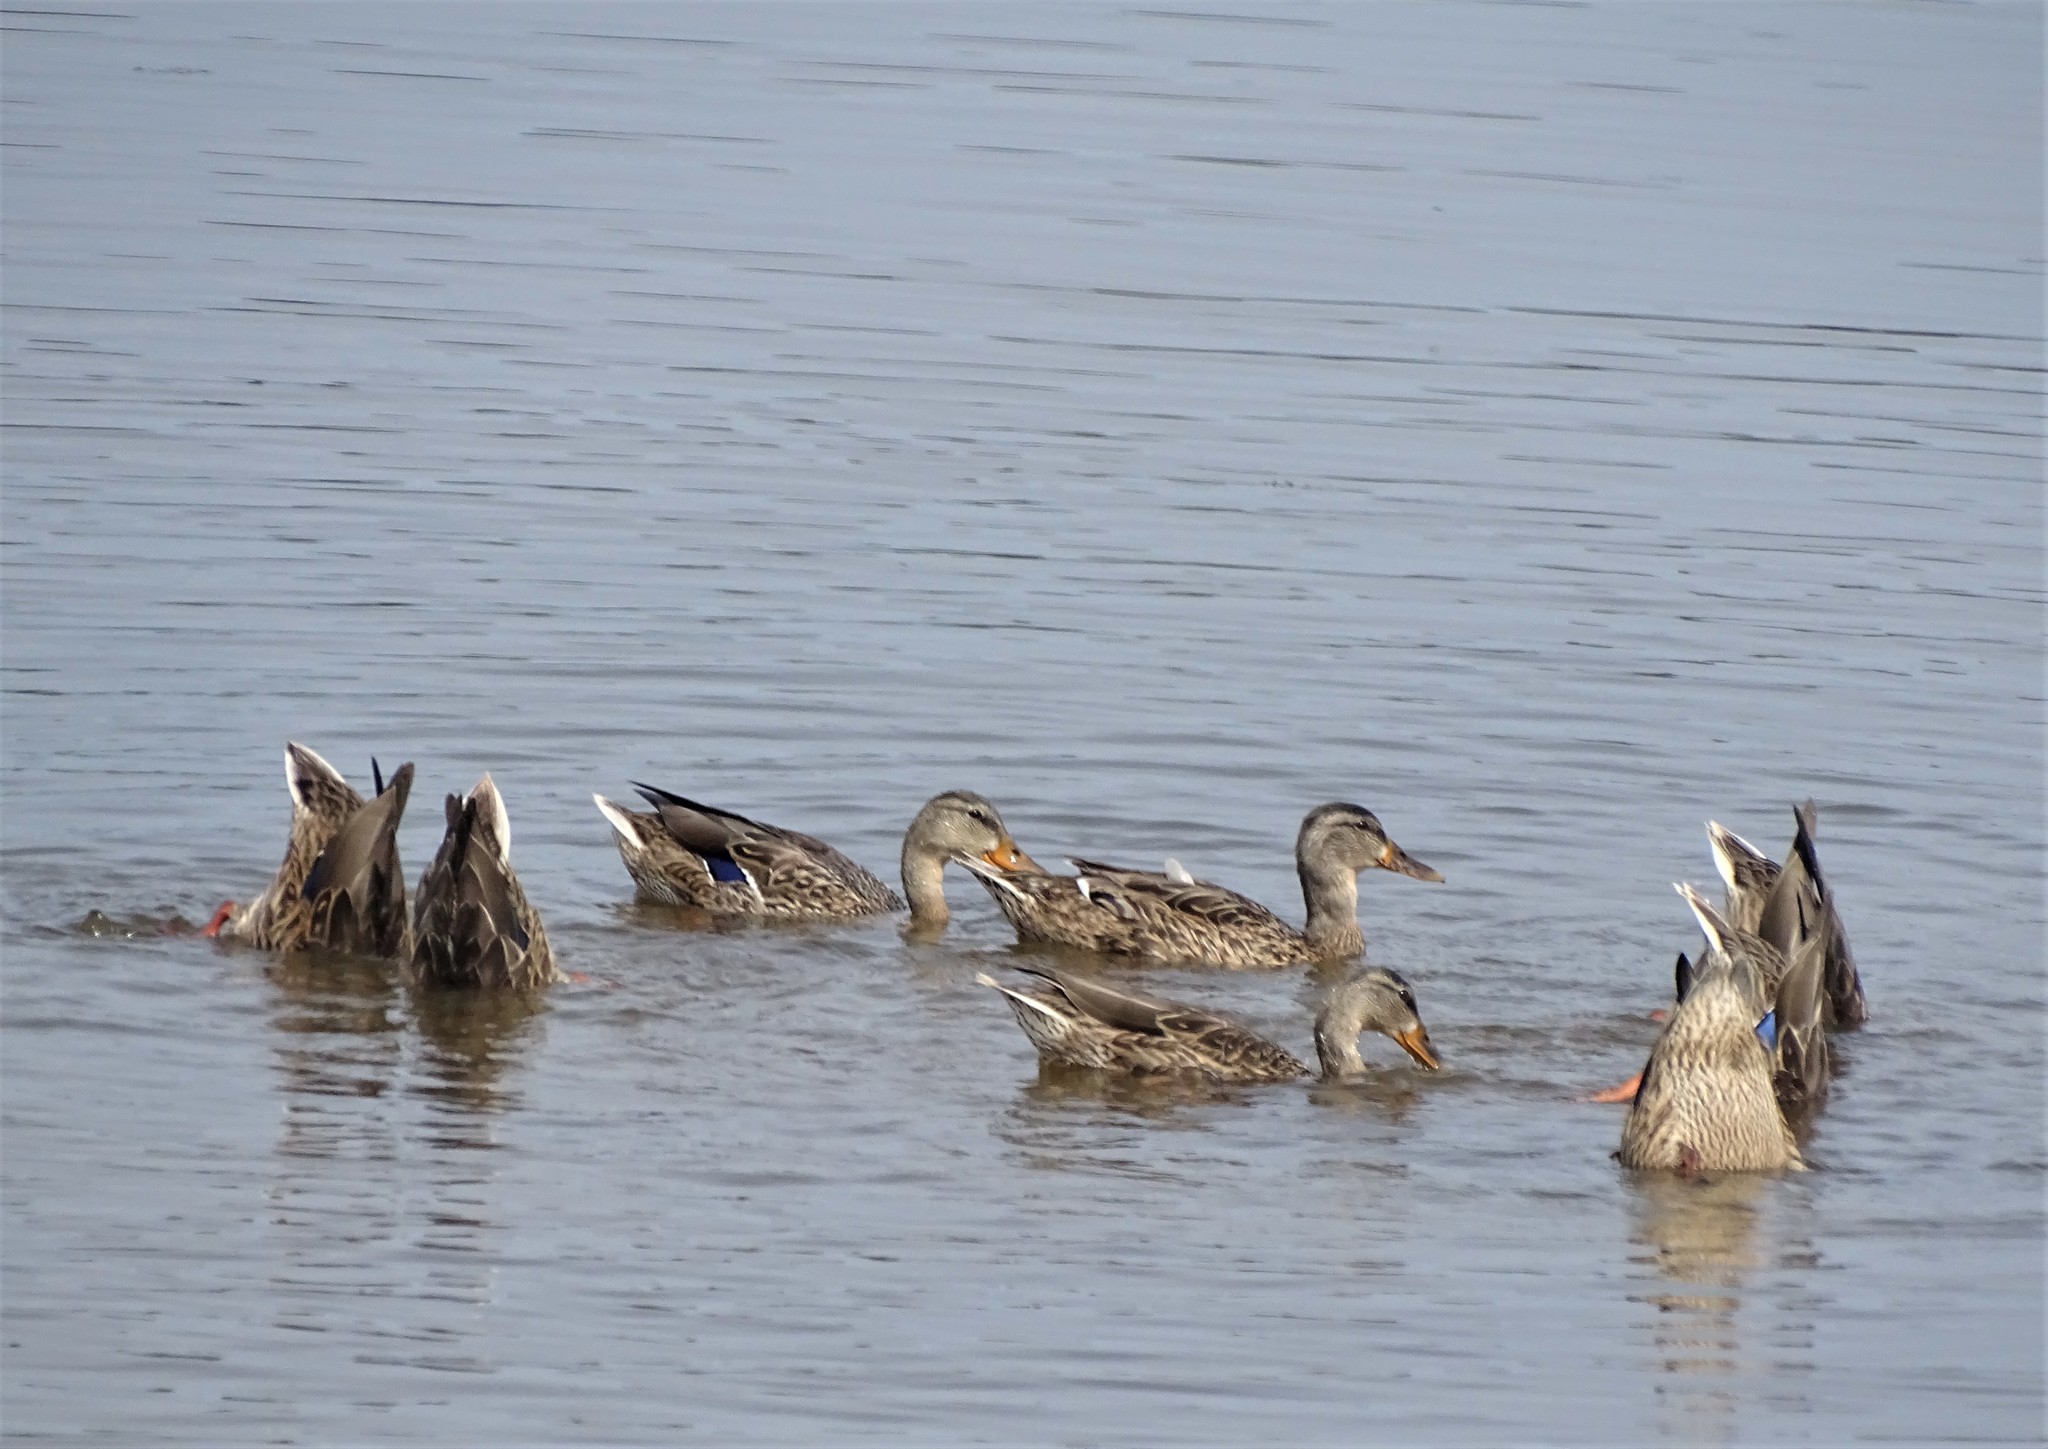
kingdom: Animalia
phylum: Chordata
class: Aves
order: Anseriformes
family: Anatidae
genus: Anas
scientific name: Anas platyrhynchos
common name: Mallard
